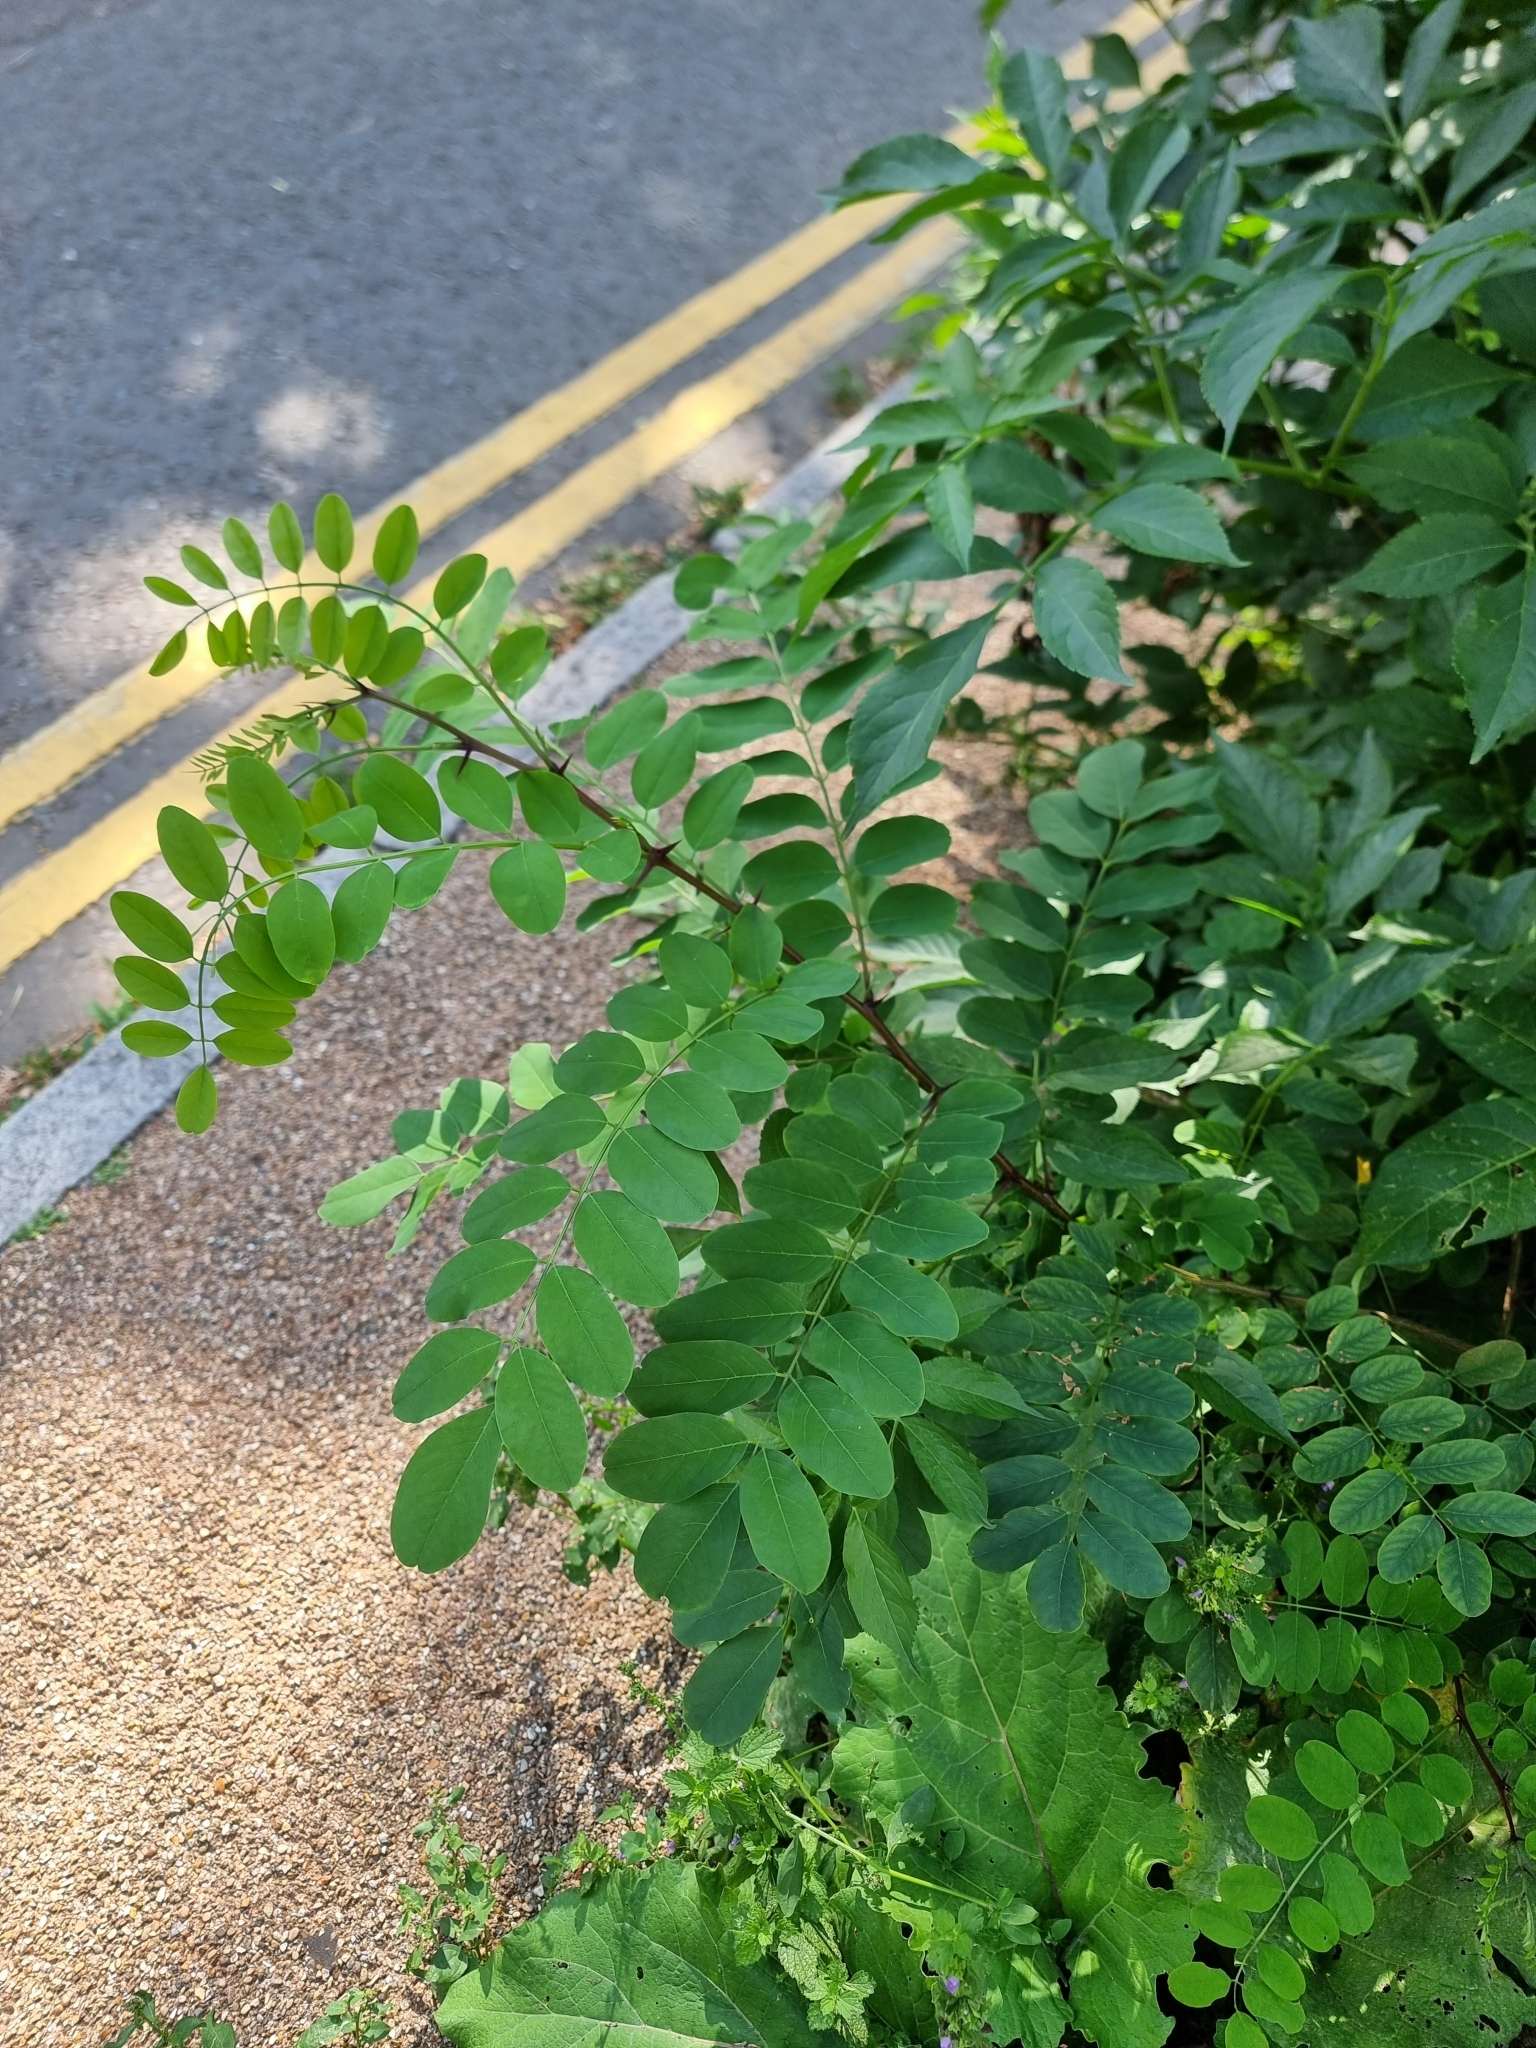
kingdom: Plantae
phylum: Tracheophyta
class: Magnoliopsida
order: Fabales
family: Fabaceae
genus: Robinia
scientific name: Robinia pseudoacacia
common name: Black locust
